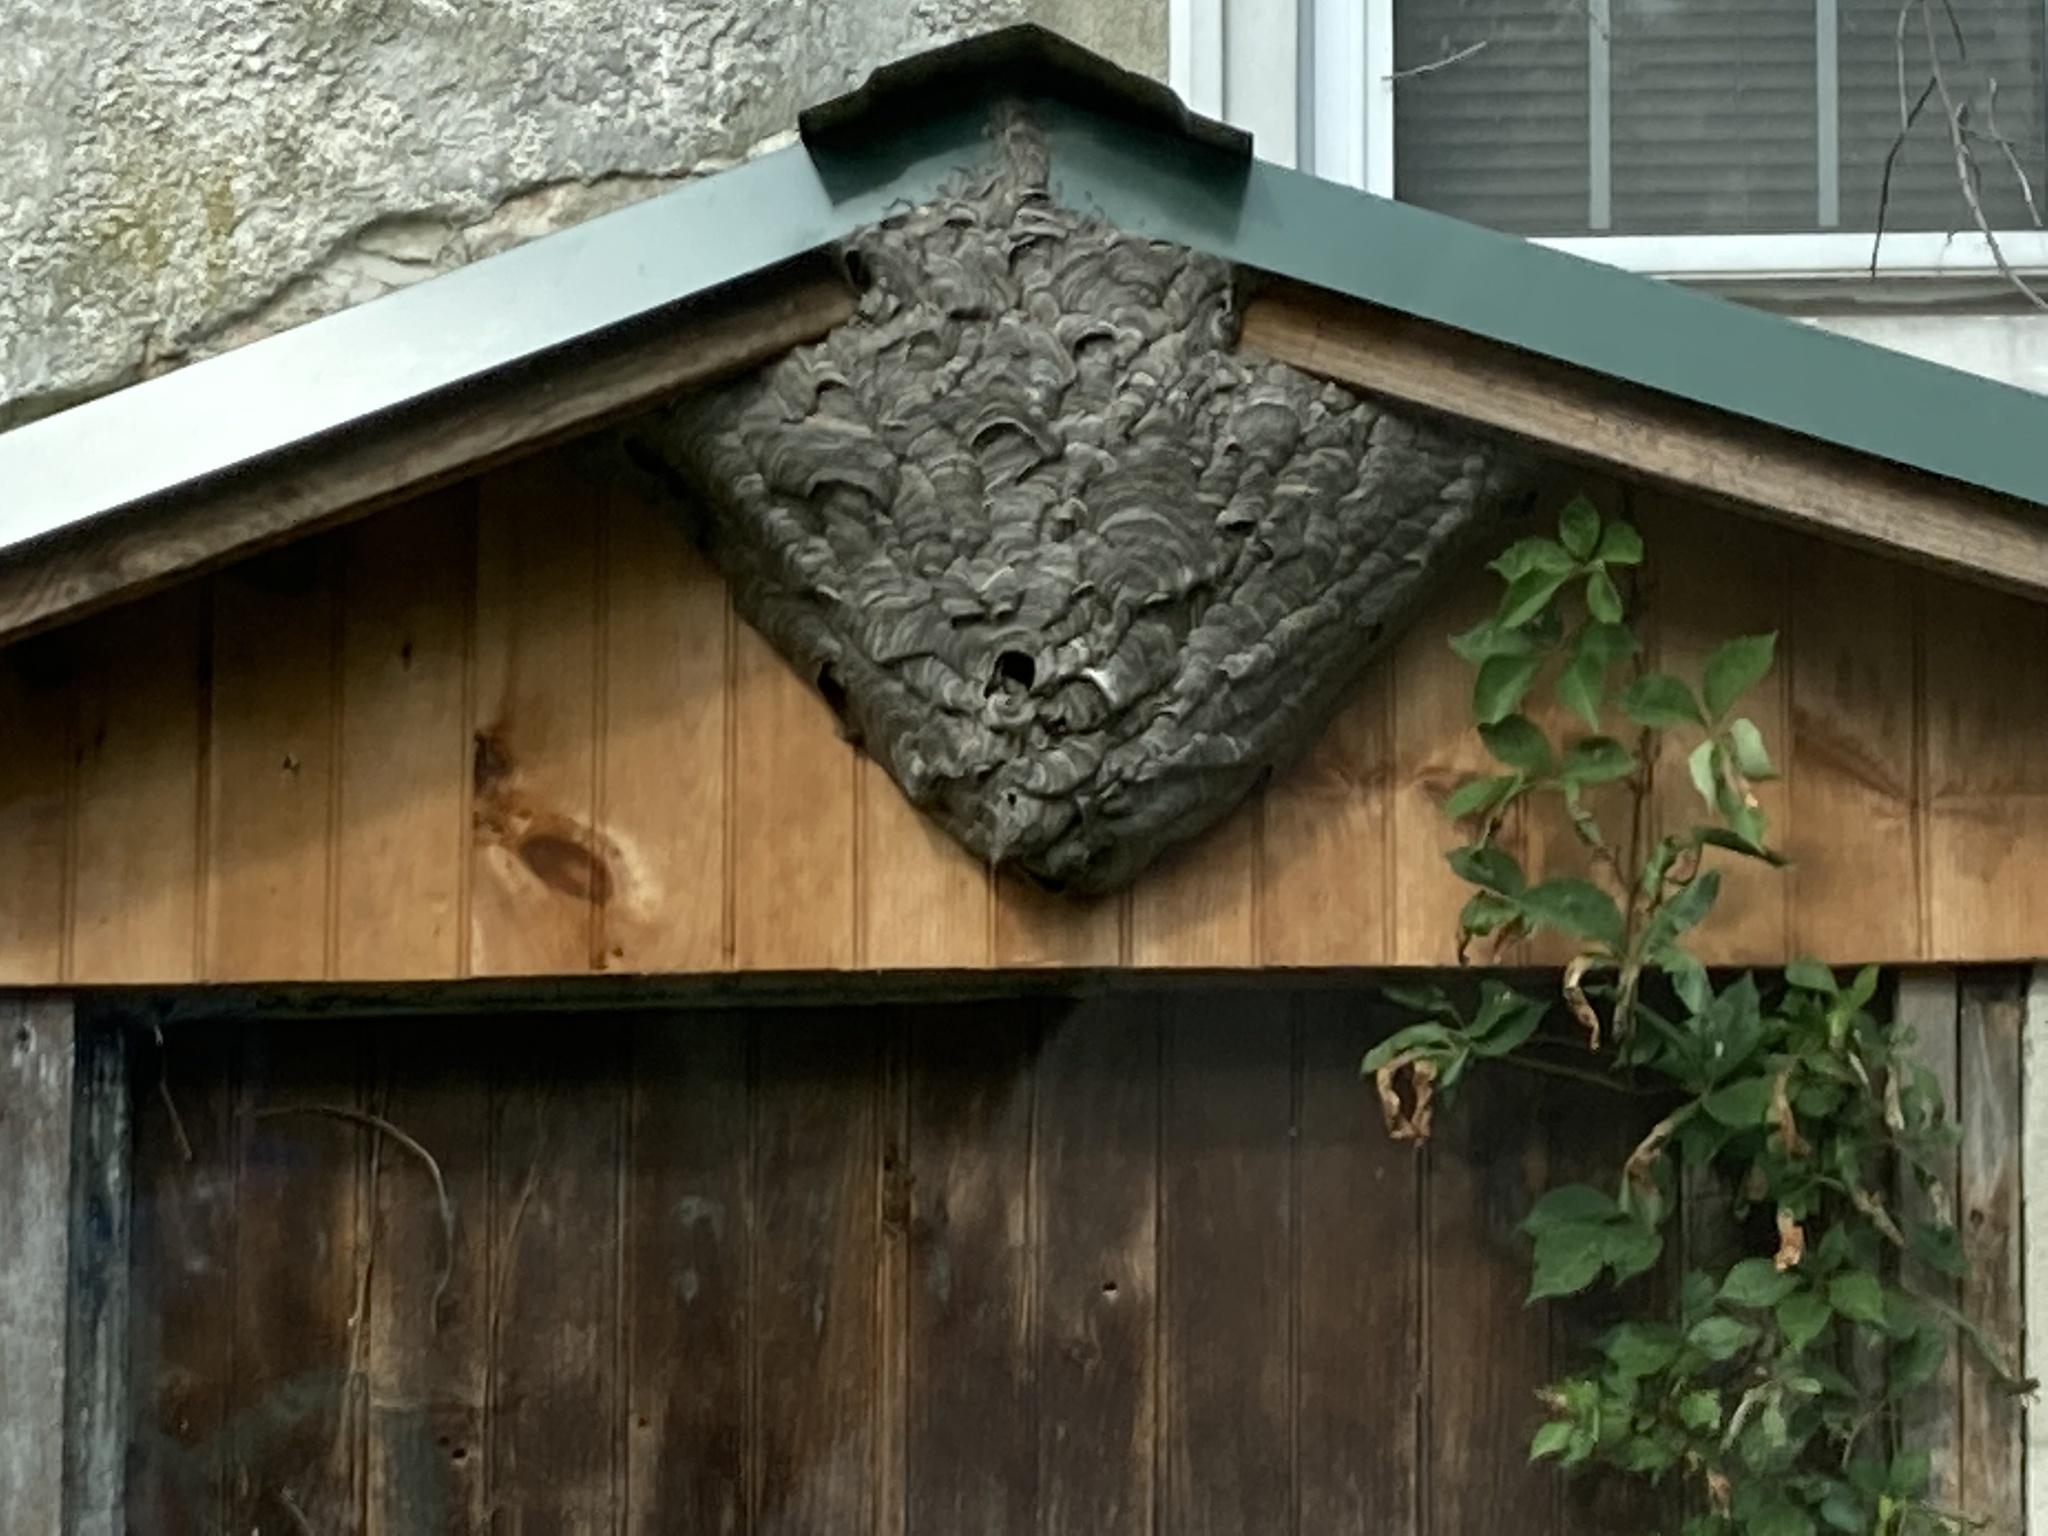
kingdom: Animalia
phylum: Arthropoda
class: Insecta
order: Hymenoptera
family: Vespidae
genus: Dolichovespula
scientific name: Dolichovespula maculata
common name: Bald-faced hornet
